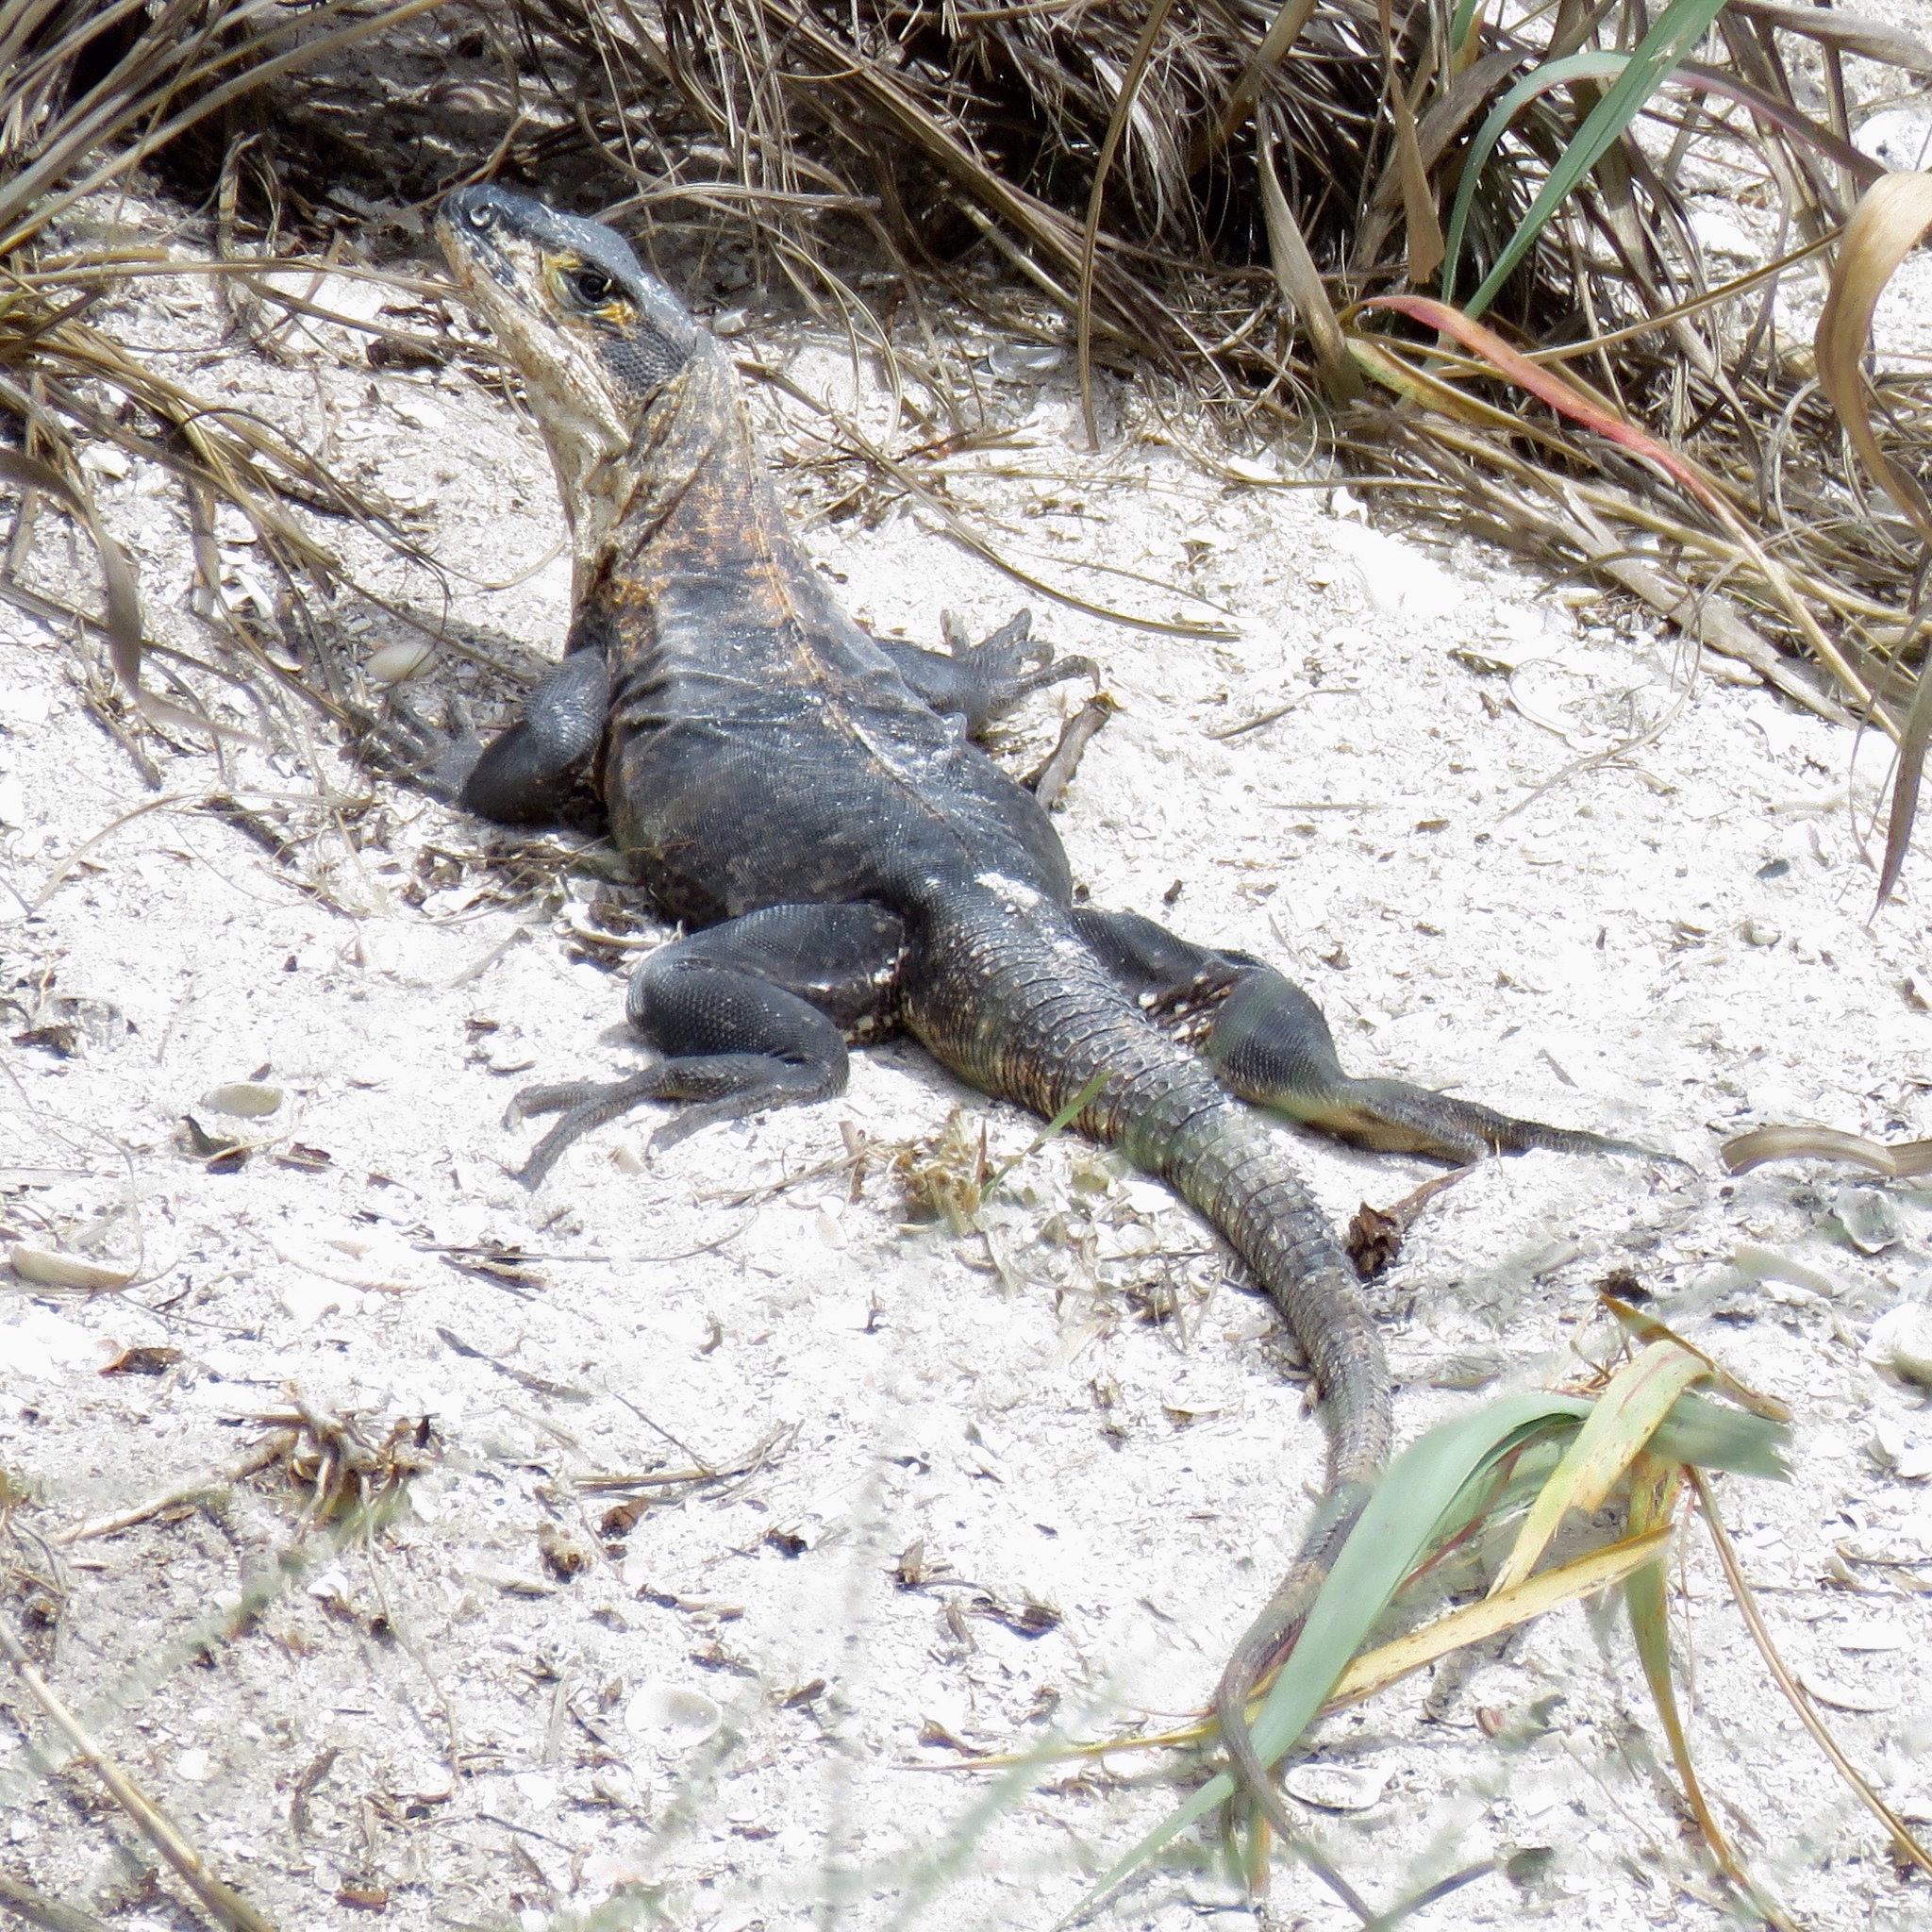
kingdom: Animalia
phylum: Chordata
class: Squamata
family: Iguanidae
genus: Ctenosaura
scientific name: Ctenosaura similis
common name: Black spiny-tailed iguana
